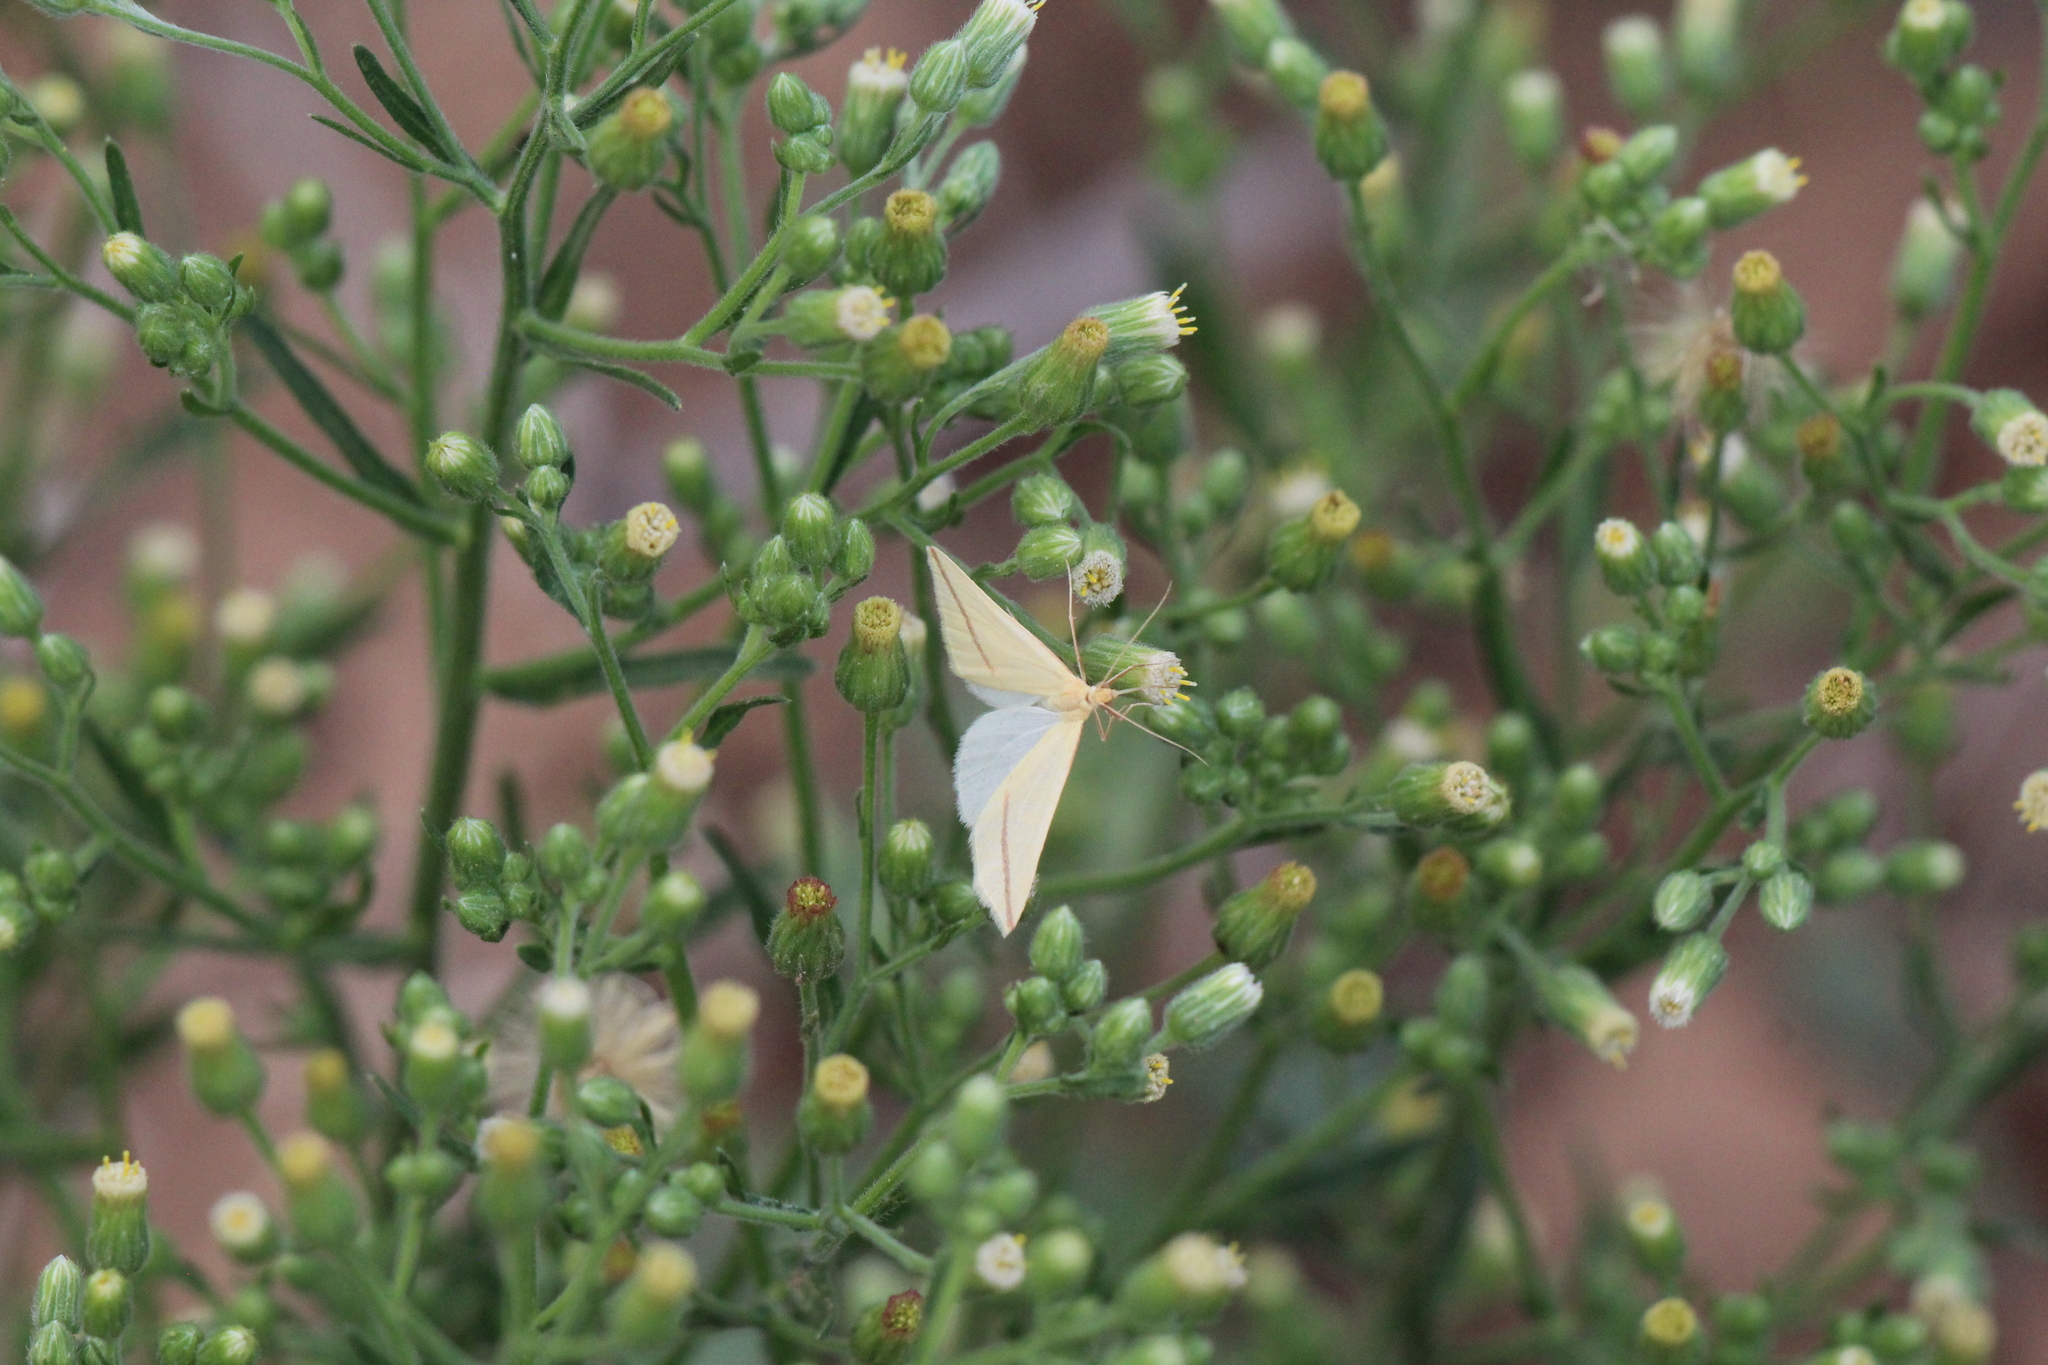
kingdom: Animalia
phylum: Arthropoda
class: Insecta
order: Lepidoptera
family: Geometridae
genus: Rhodometra
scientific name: Rhodometra sacraria
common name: Vestal
